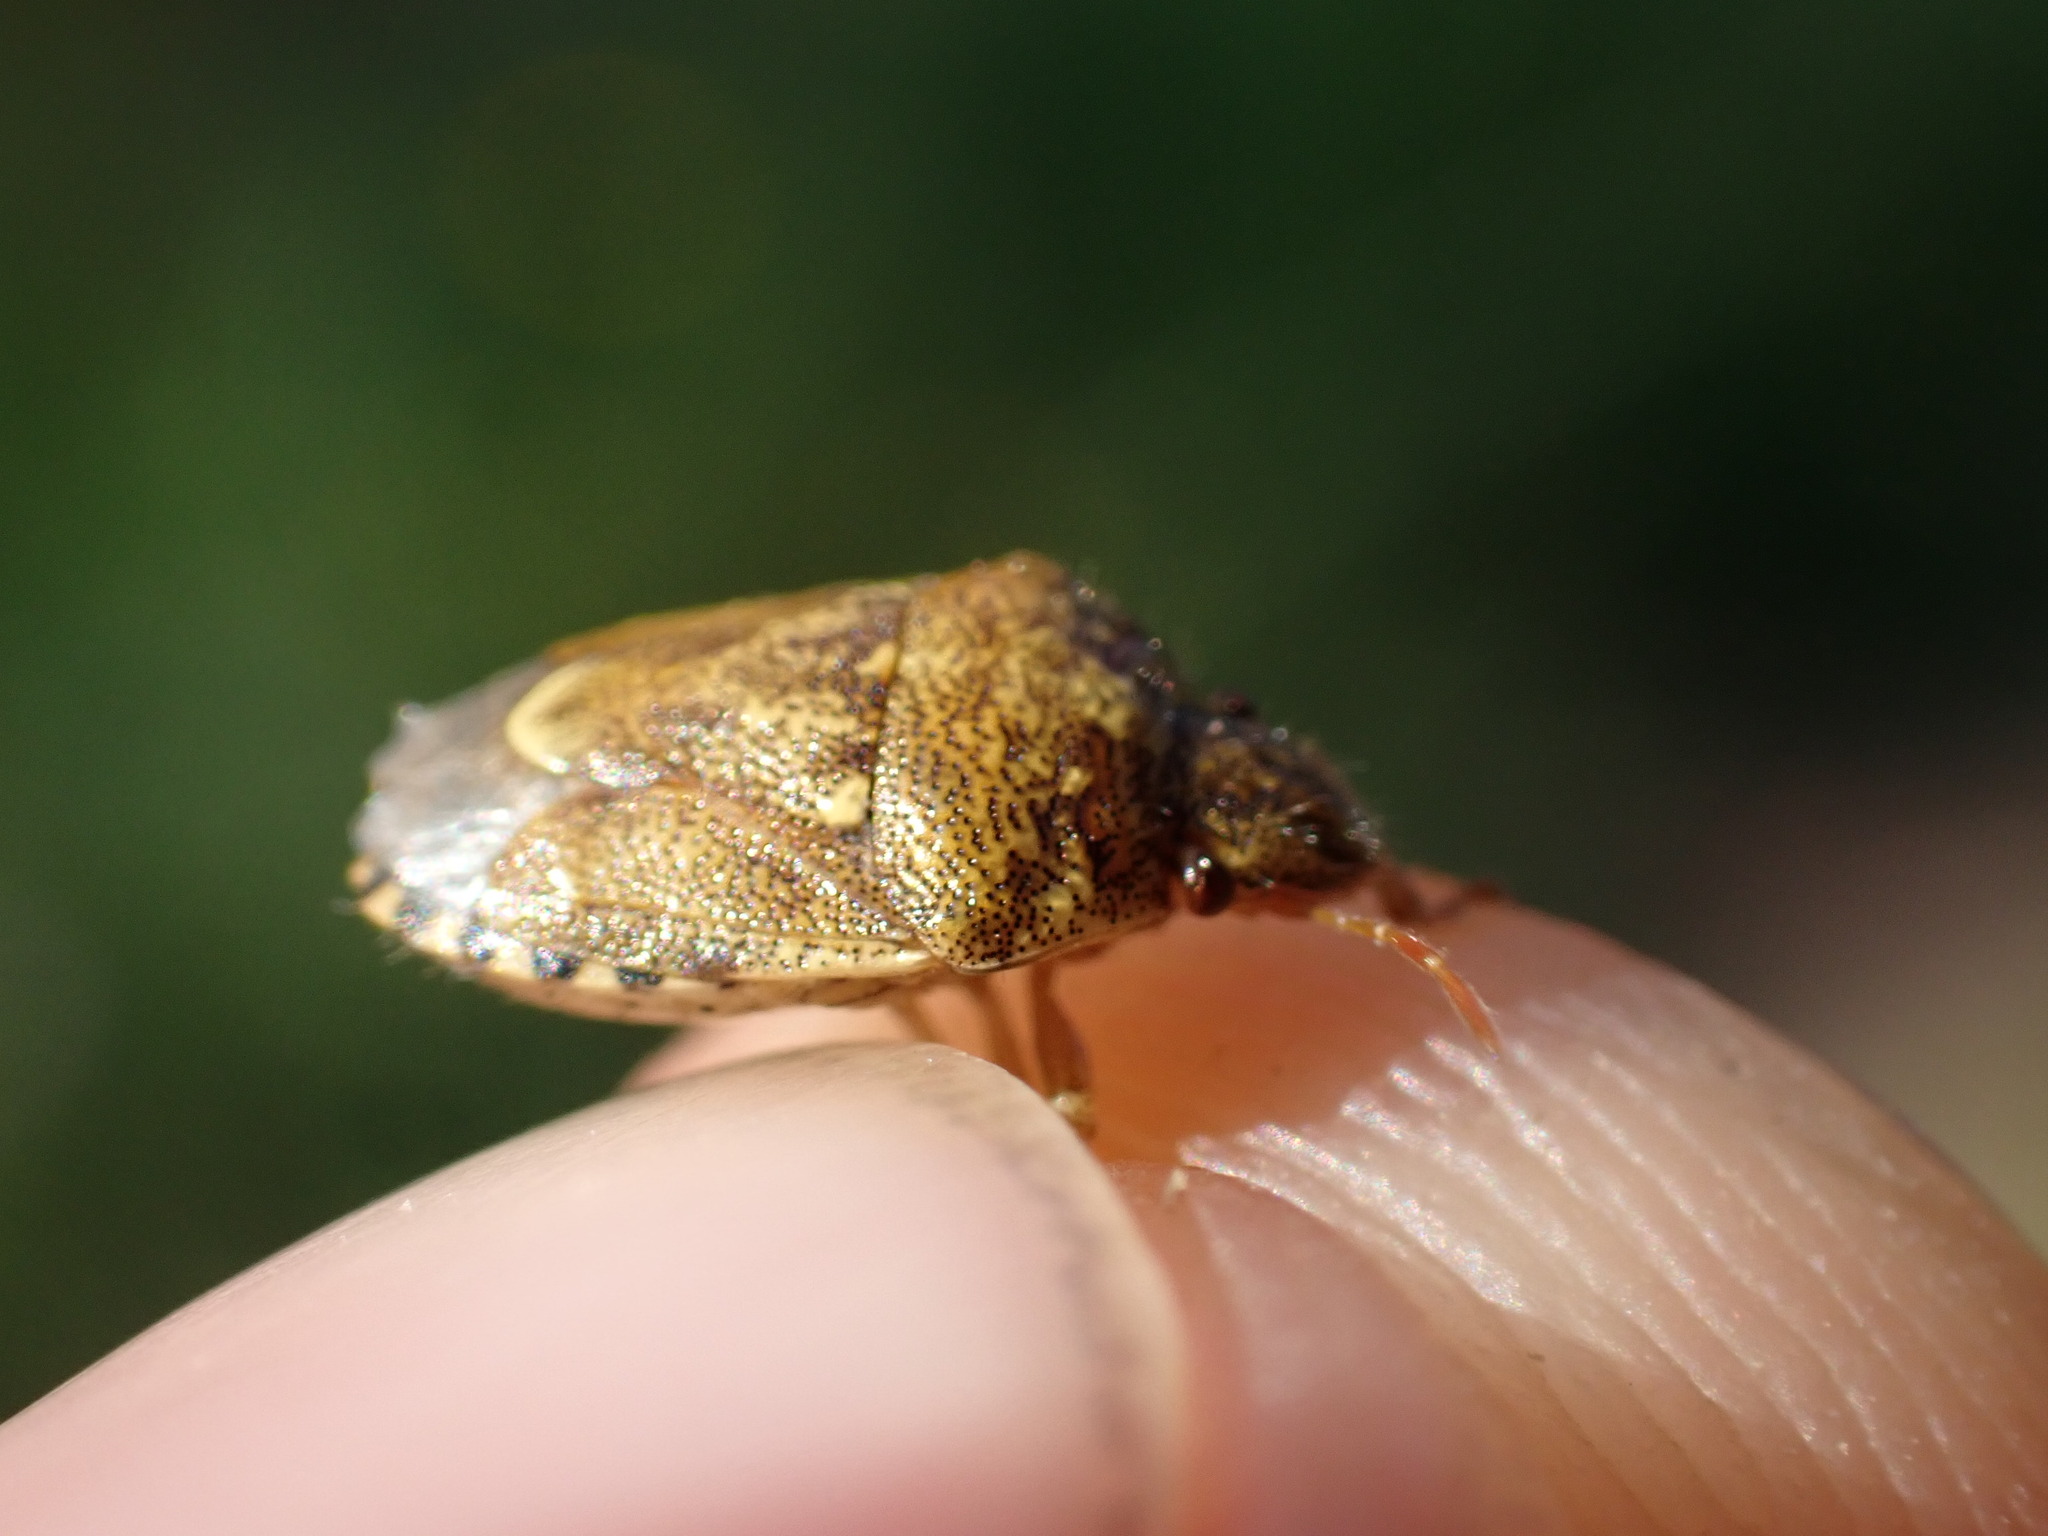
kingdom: Animalia
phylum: Arthropoda
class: Insecta
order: Hemiptera
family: Pentatomidae
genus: Staria
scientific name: Staria lunata
